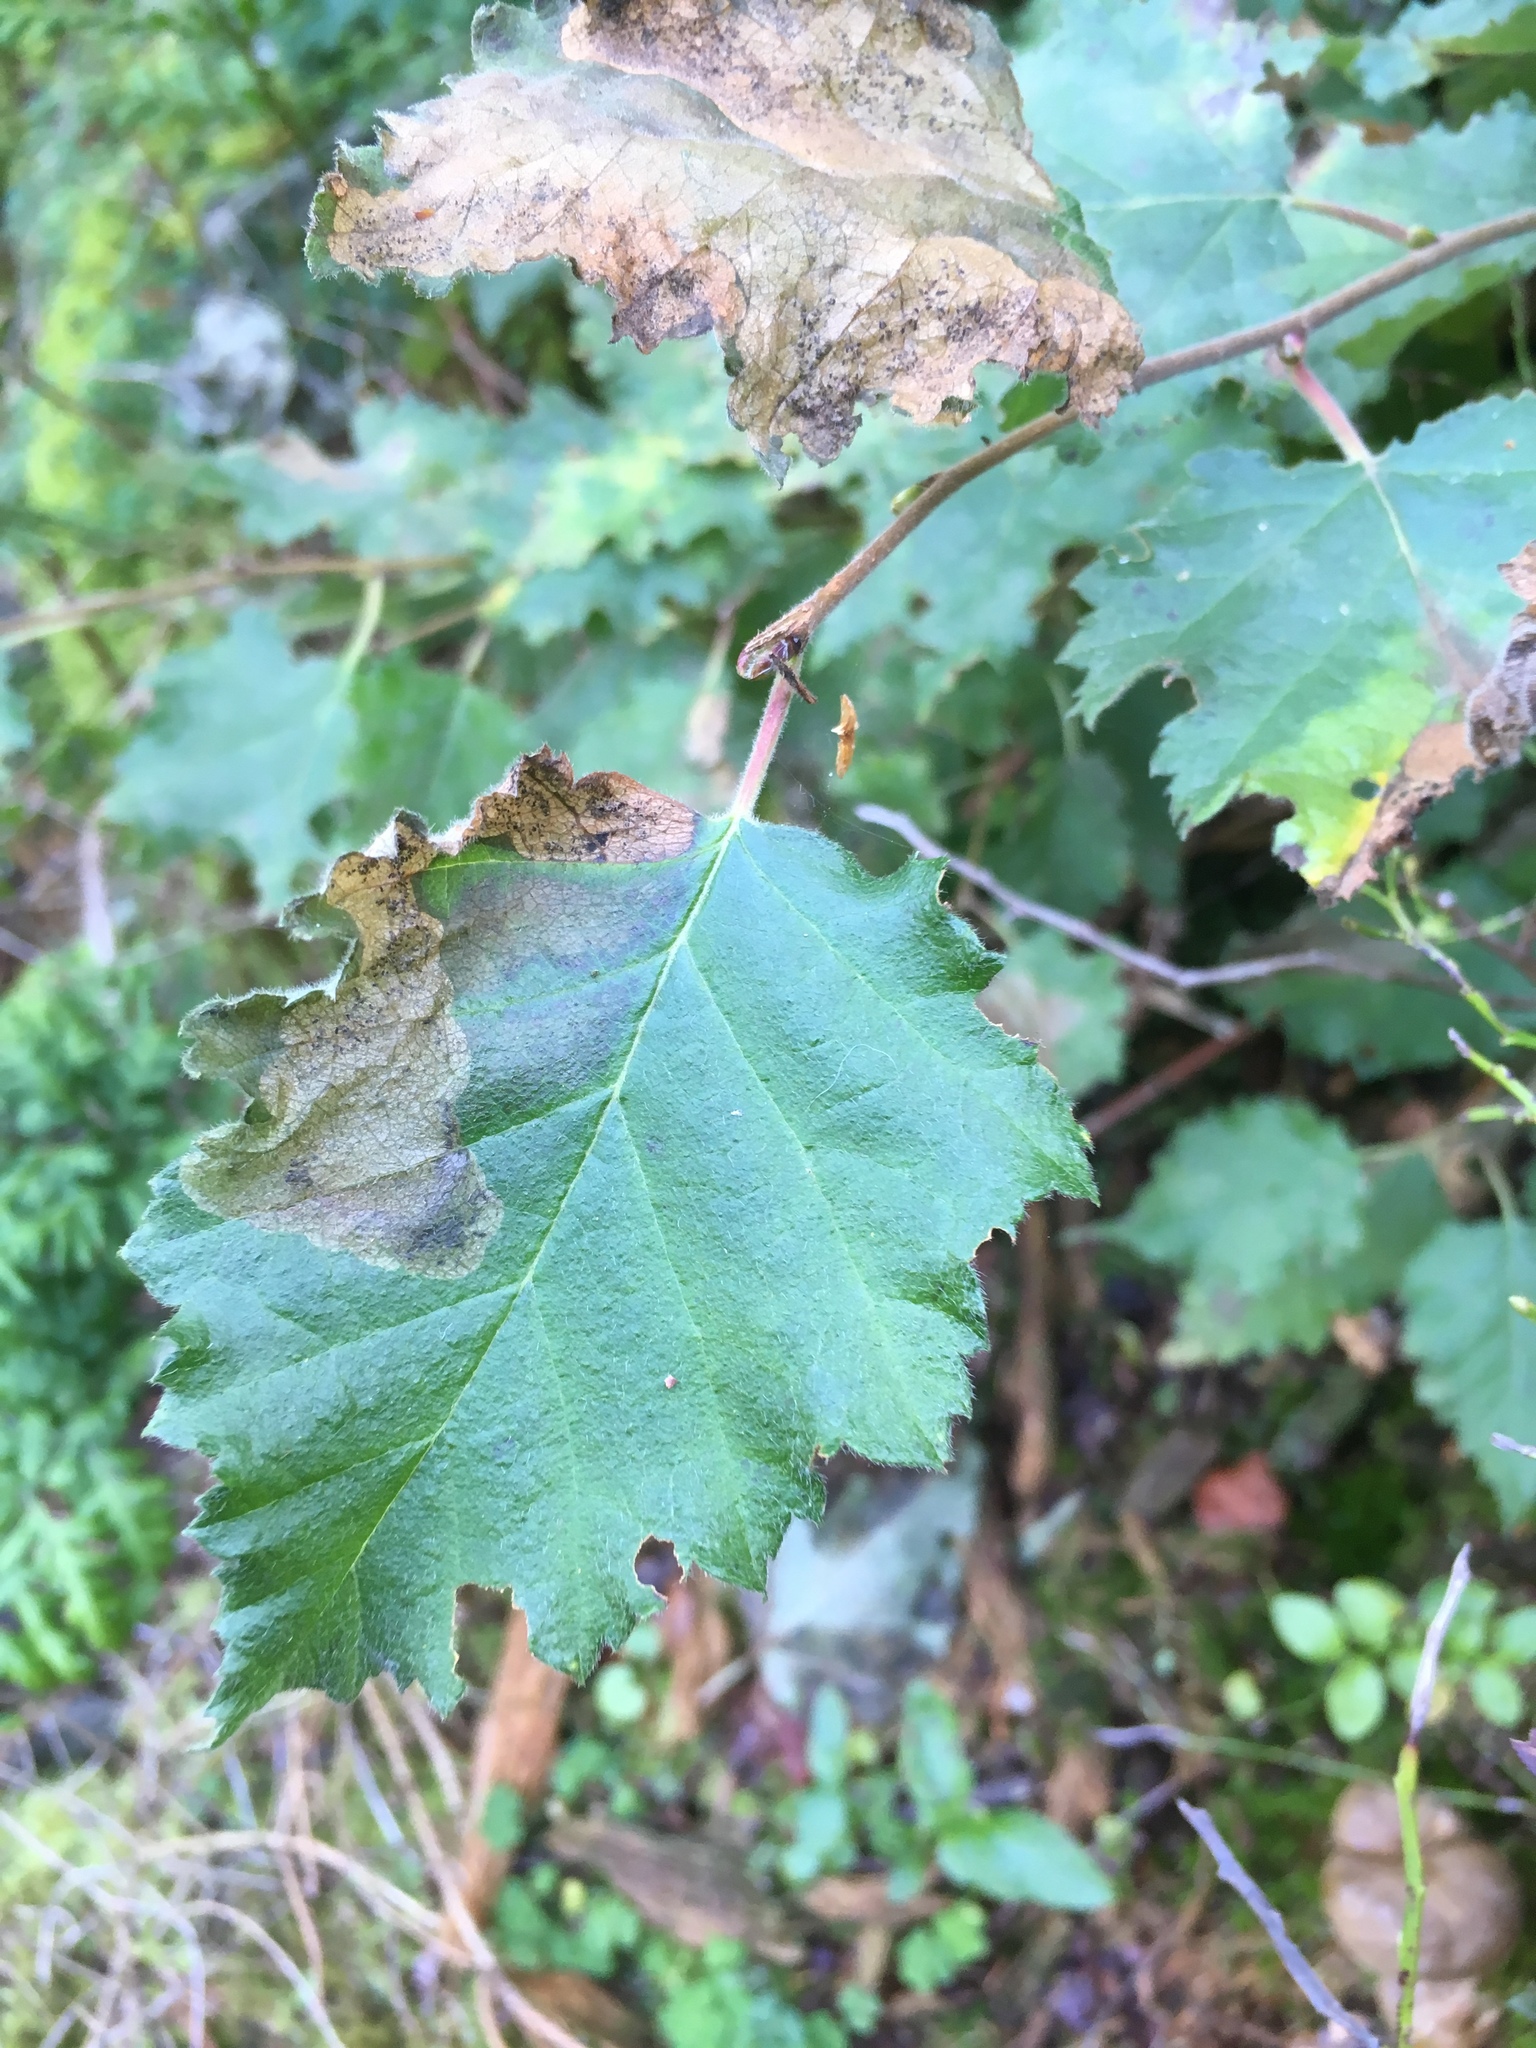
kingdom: Plantae
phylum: Tracheophyta
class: Magnoliopsida
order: Fagales
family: Betulaceae
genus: Betula
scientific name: Betula pendula
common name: Silver birch
